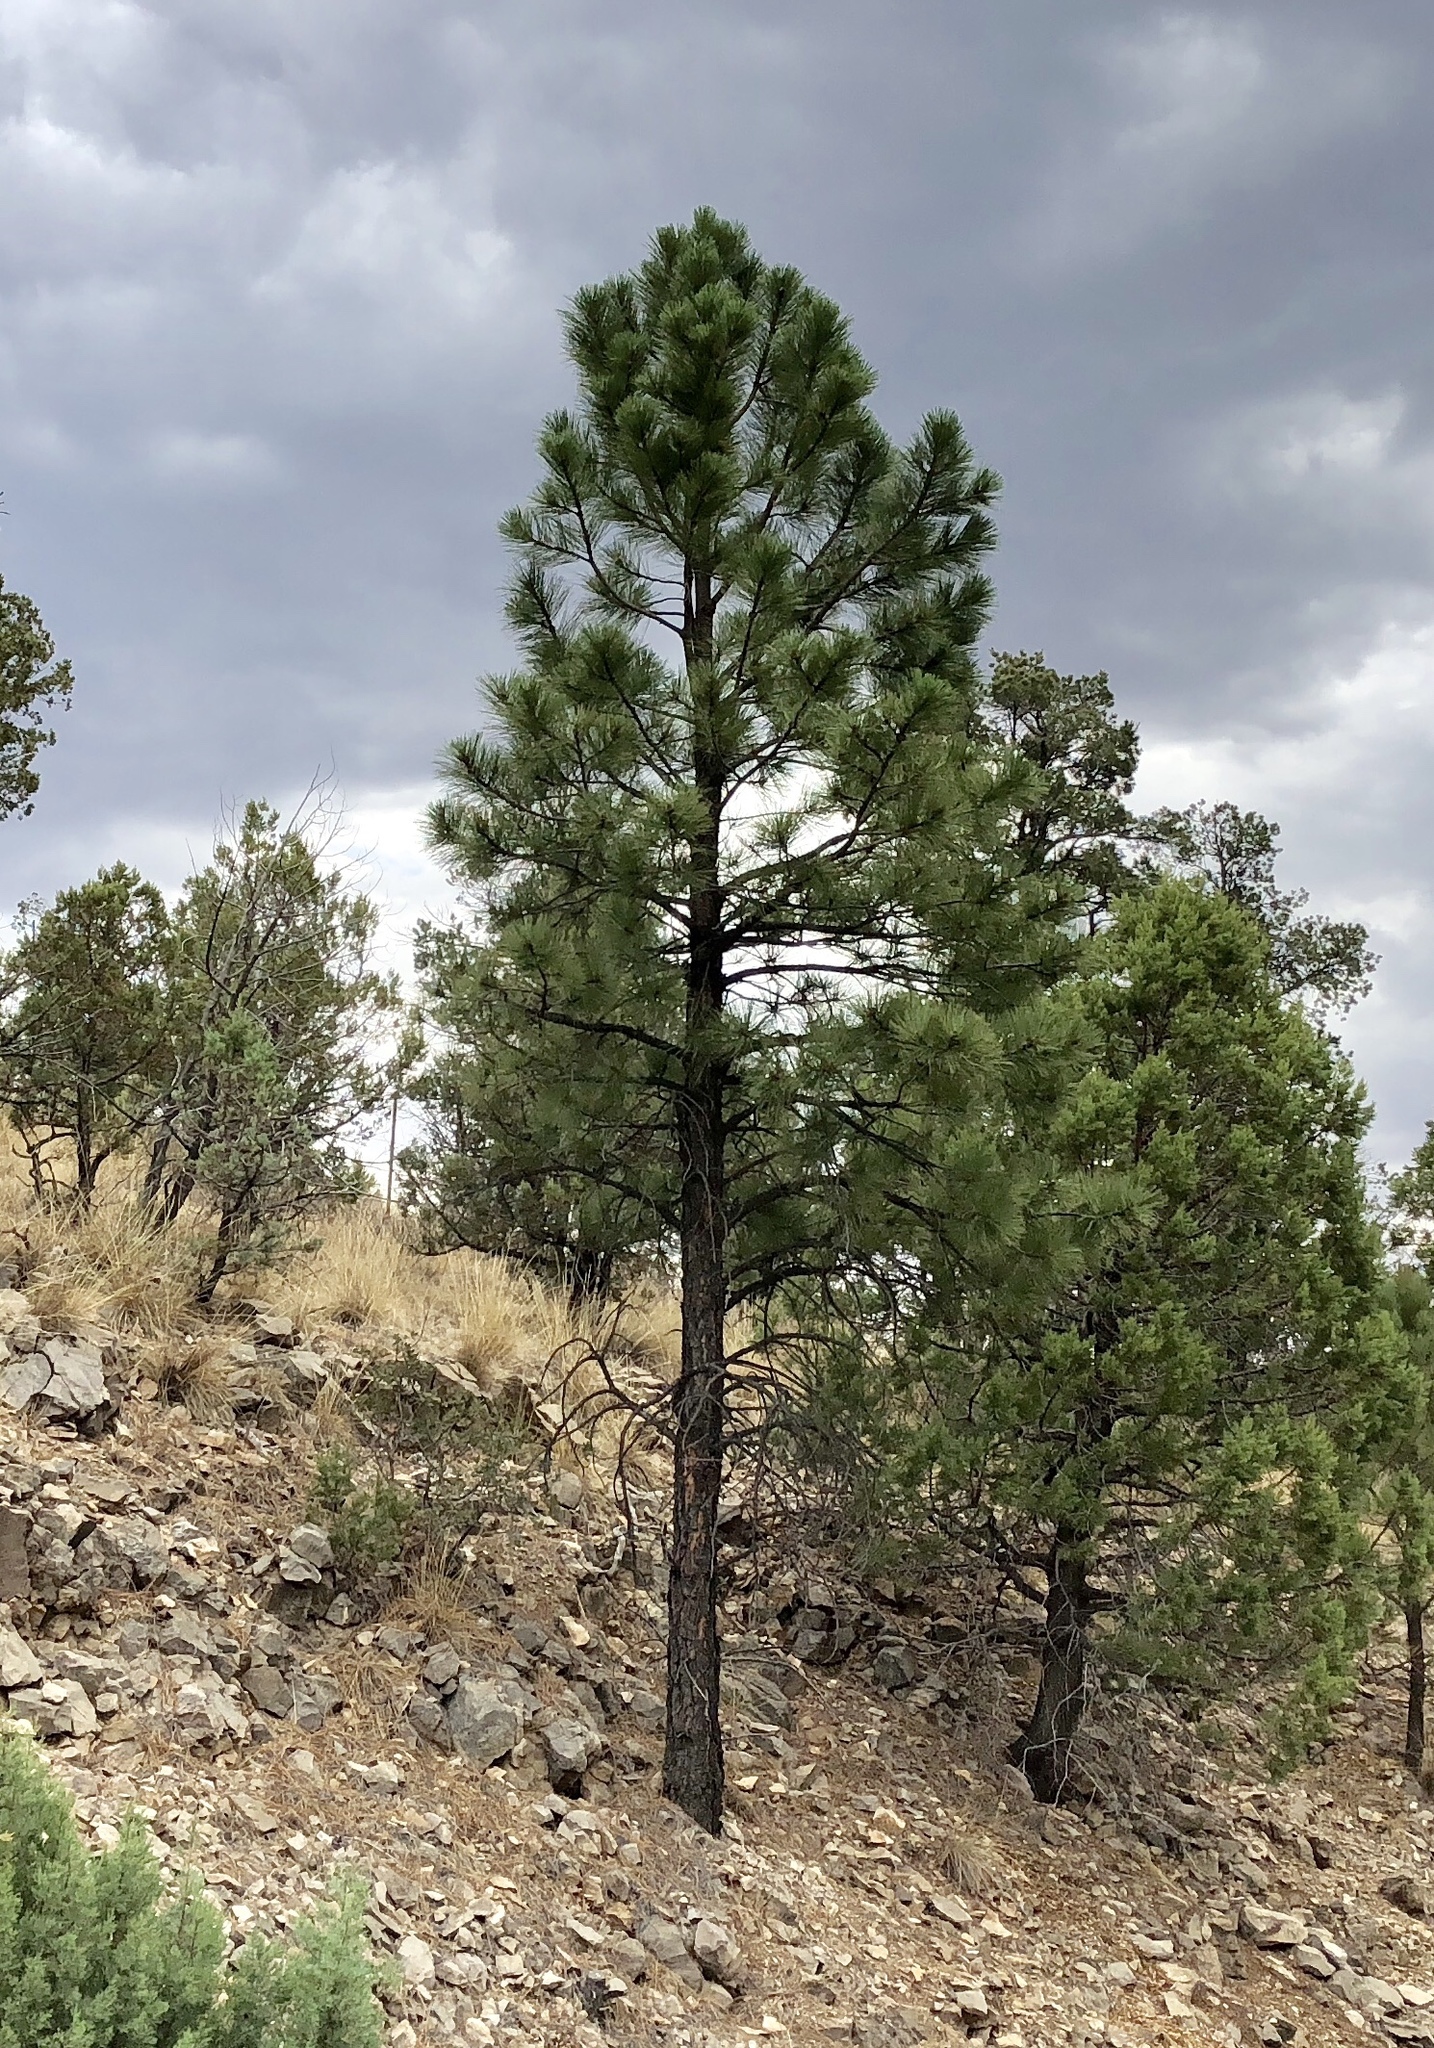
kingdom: Plantae
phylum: Tracheophyta
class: Pinopsida
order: Pinales
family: Pinaceae
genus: Pinus
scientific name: Pinus ponderosa
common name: Western yellow-pine
